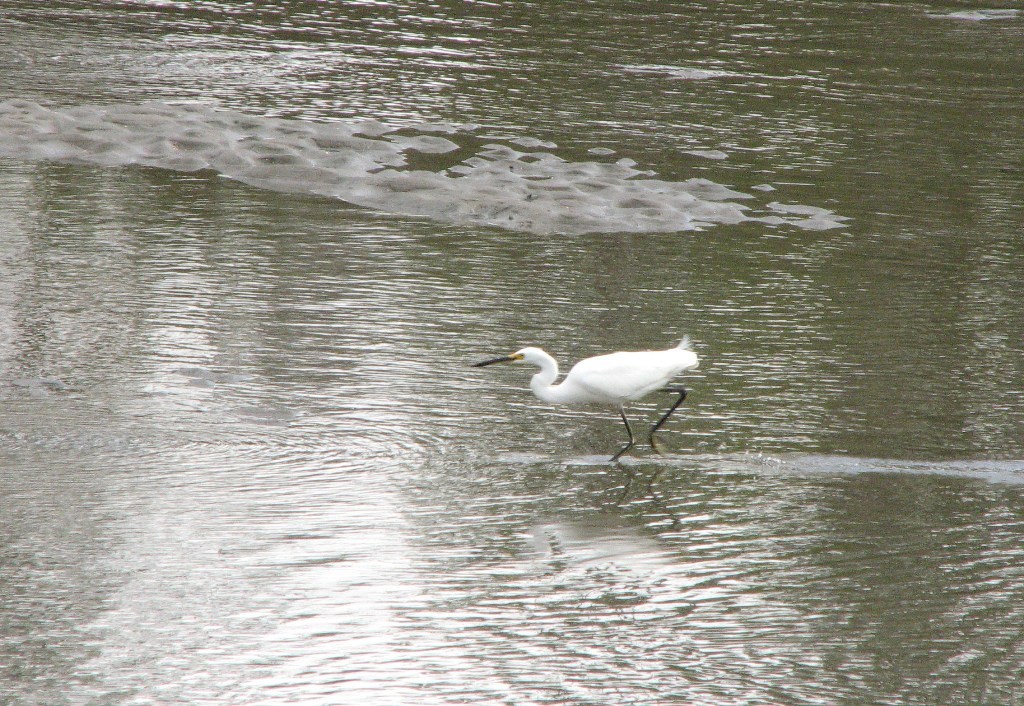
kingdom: Animalia
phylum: Chordata
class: Aves
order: Pelecaniformes
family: Ardeidae
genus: Egretta
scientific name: Egretta garzetta
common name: Little egret
